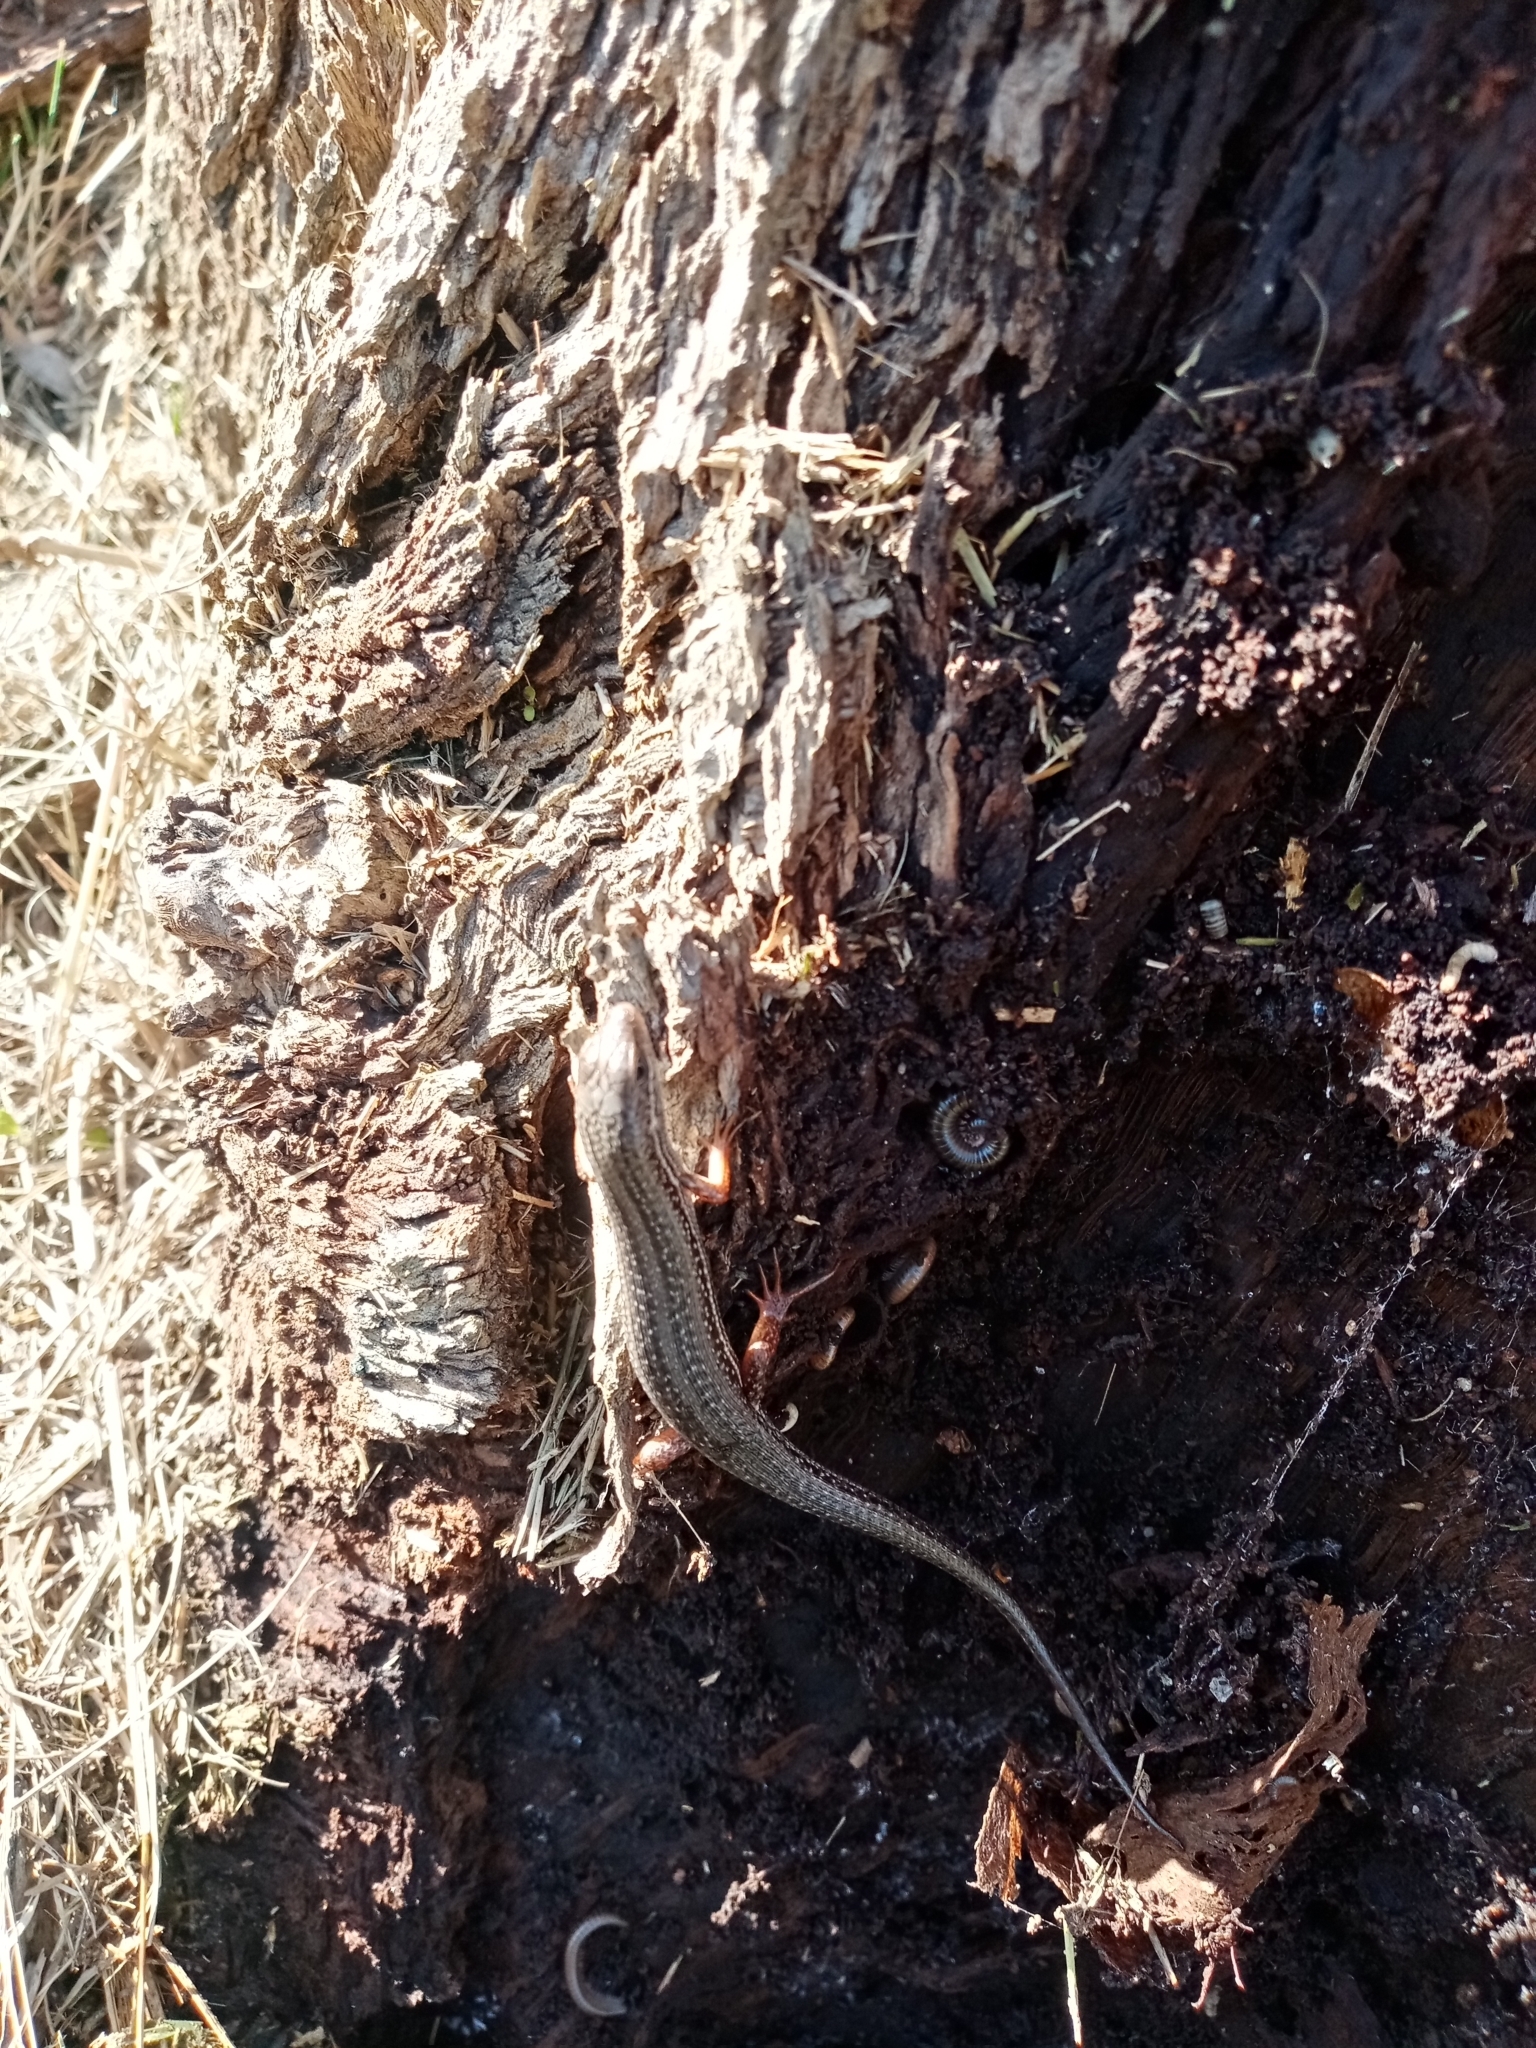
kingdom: Animalia
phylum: Chordata
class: Squamata
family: Scincidae
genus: Trachylepis
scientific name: Trachylepis homalocephala
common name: Red-sided skink
